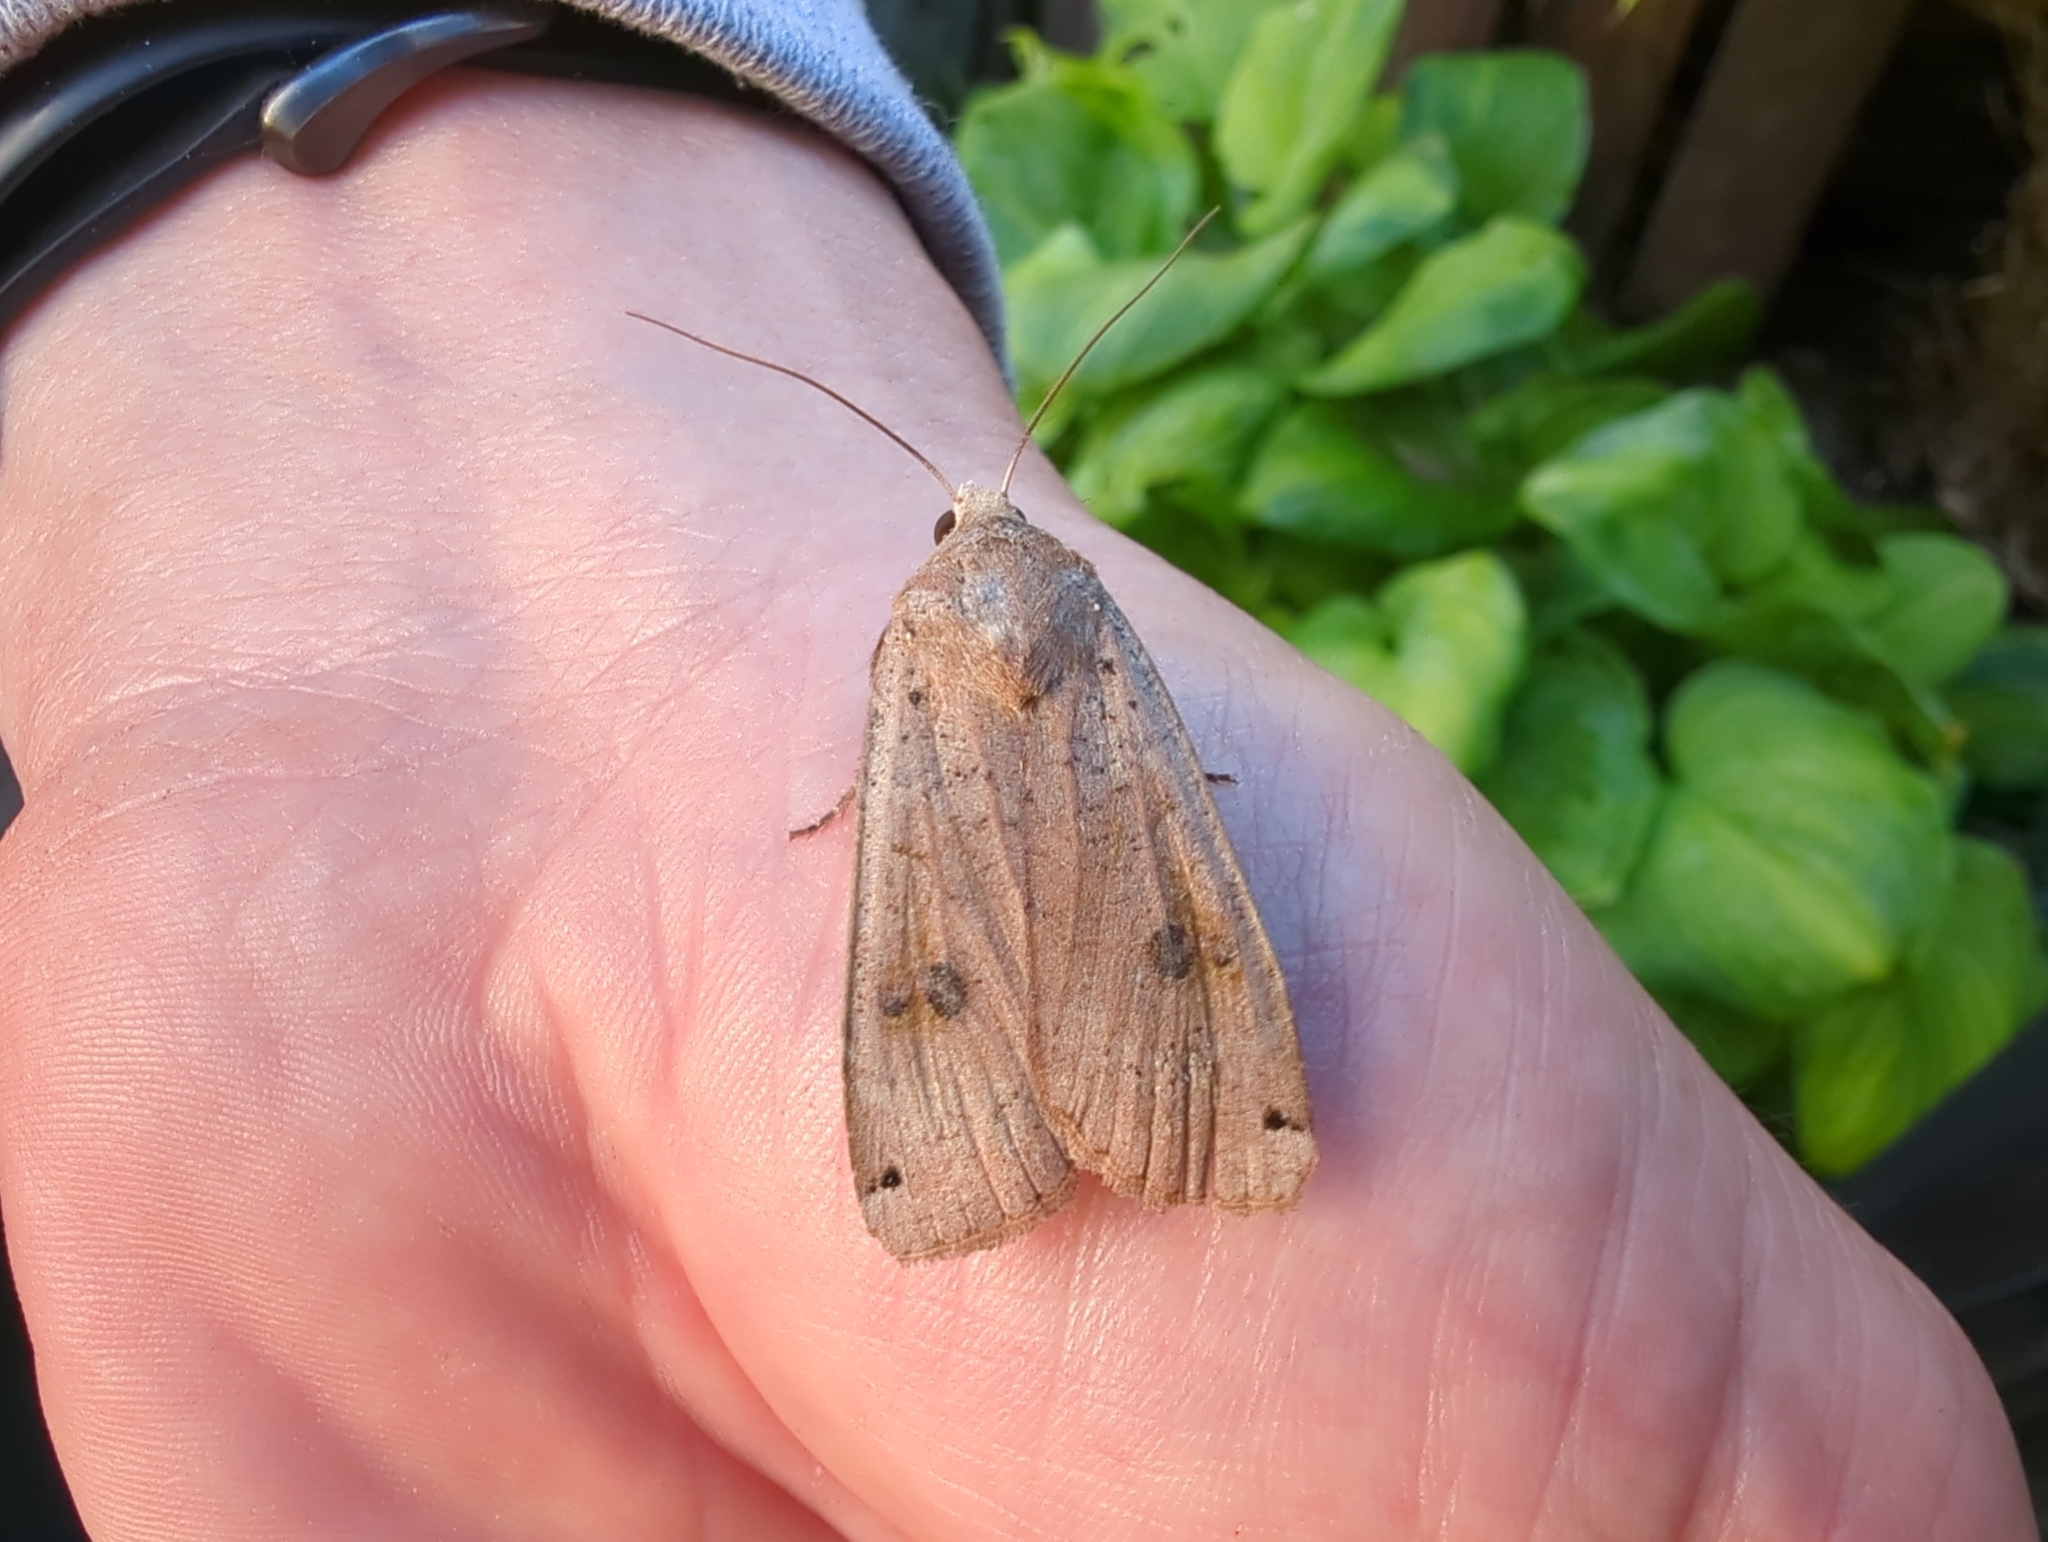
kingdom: Animalia
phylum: Arthropoda
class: Insecta
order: Lepidoptera
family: Noctuidae
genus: Noctua
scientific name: Noctua pronuba
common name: Large yellow underwing
